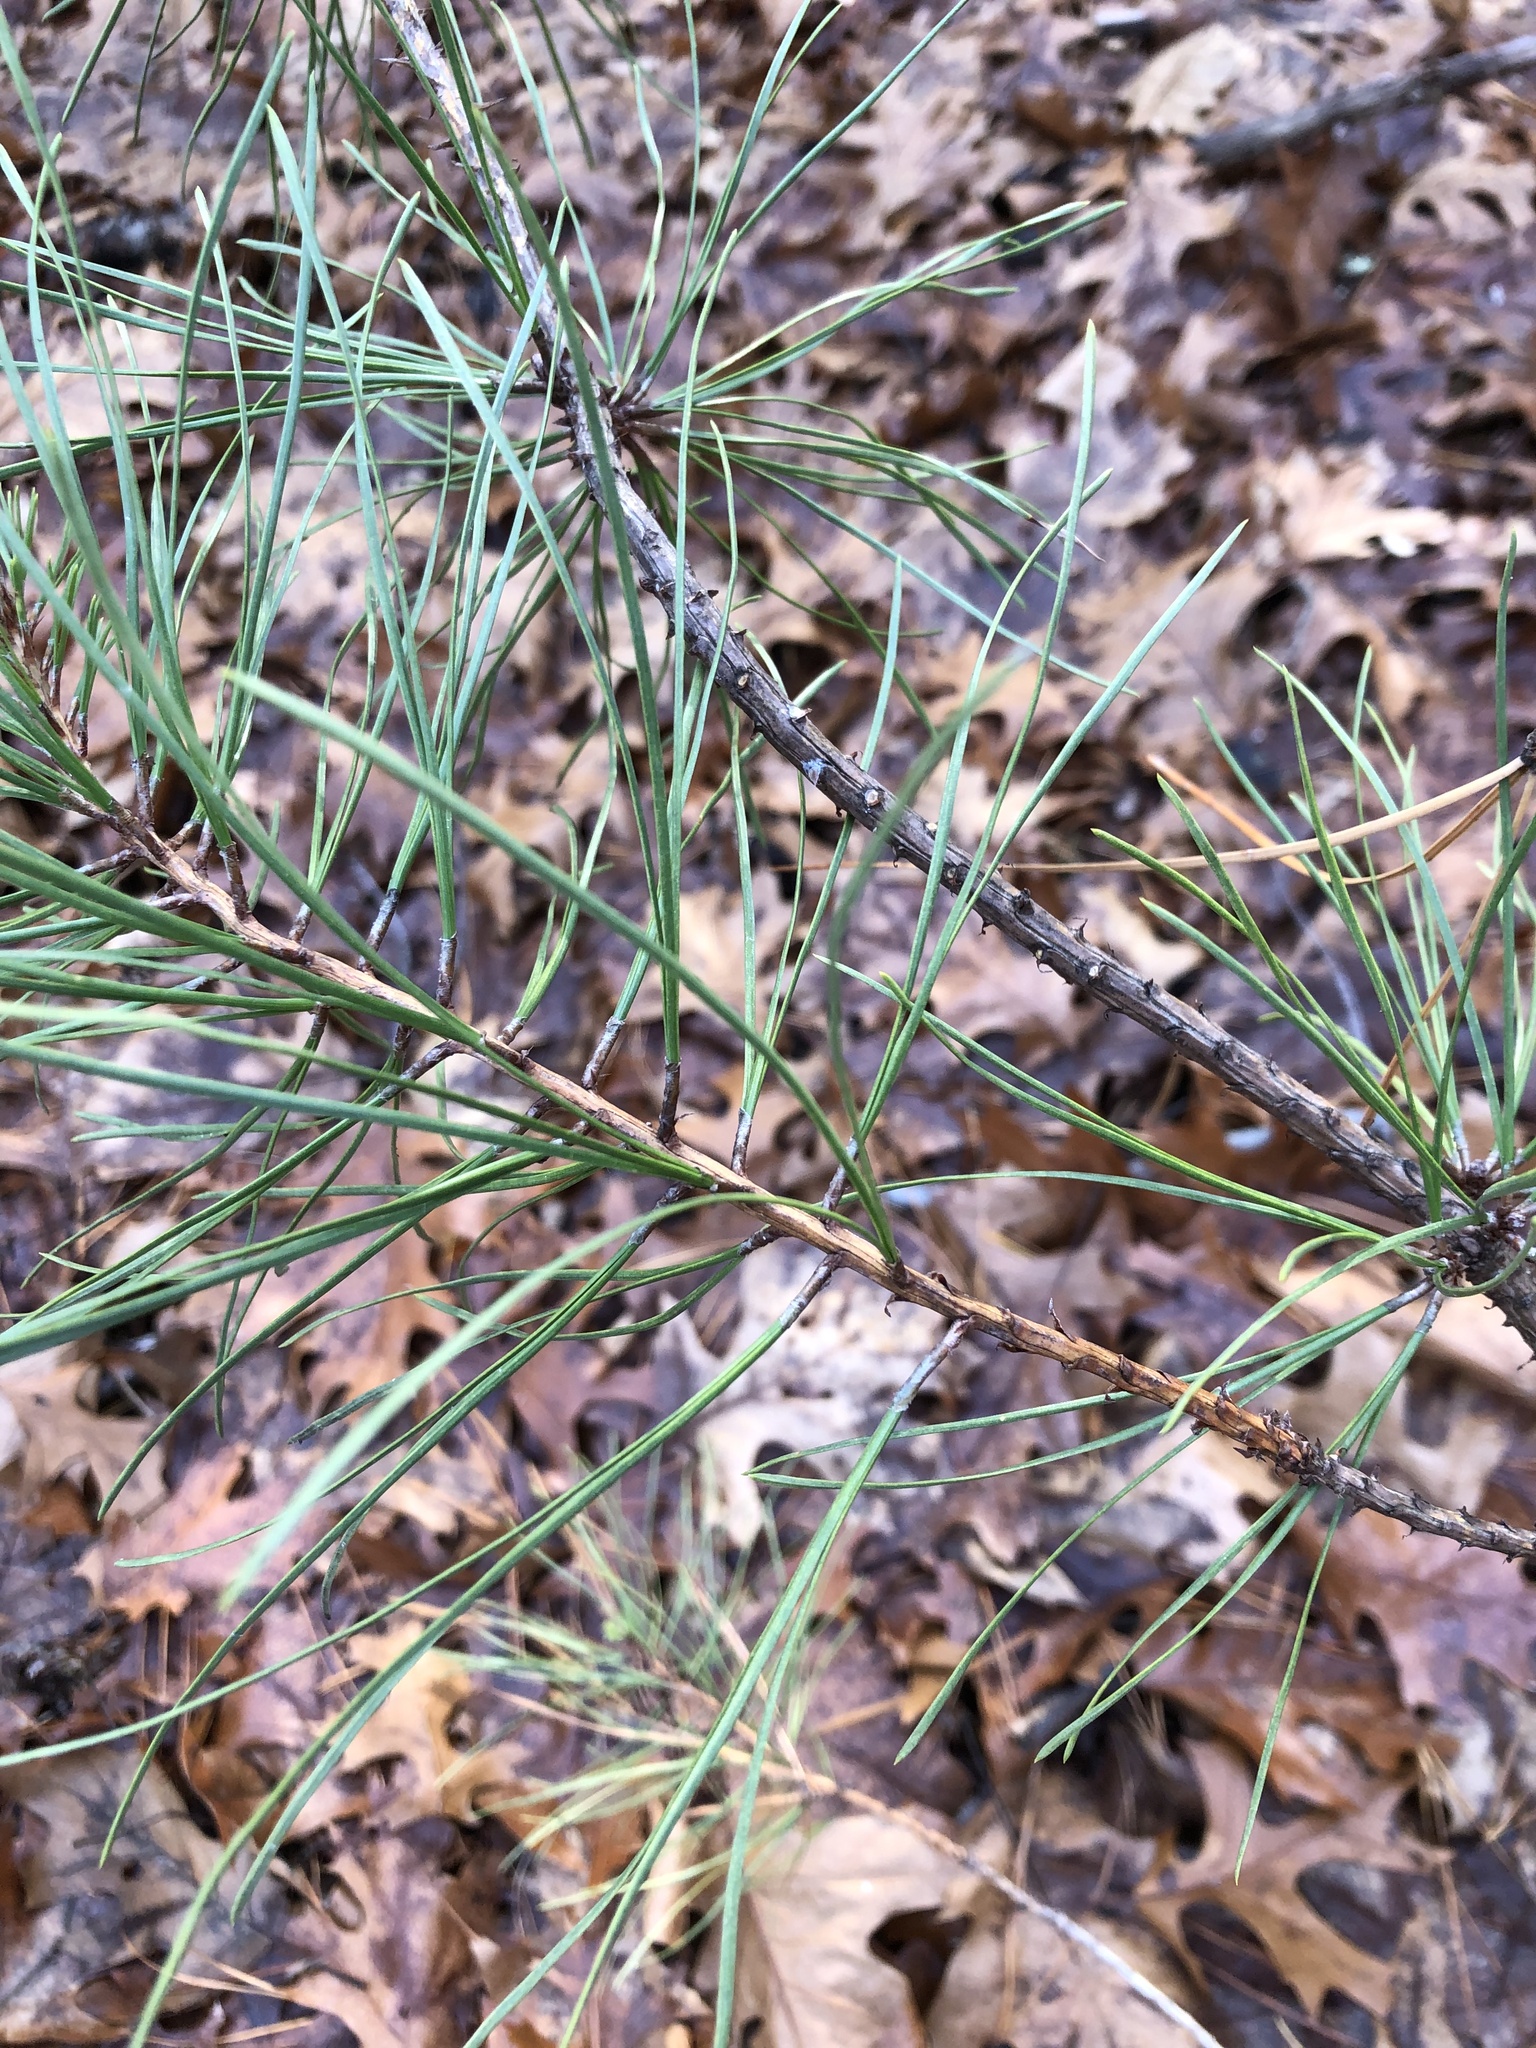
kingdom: Plantae
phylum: Tracheophyta
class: Pinopsida
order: Pinales
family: Pinaceae
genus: Pinus
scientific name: Pinus strobus
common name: Weymouth pine
